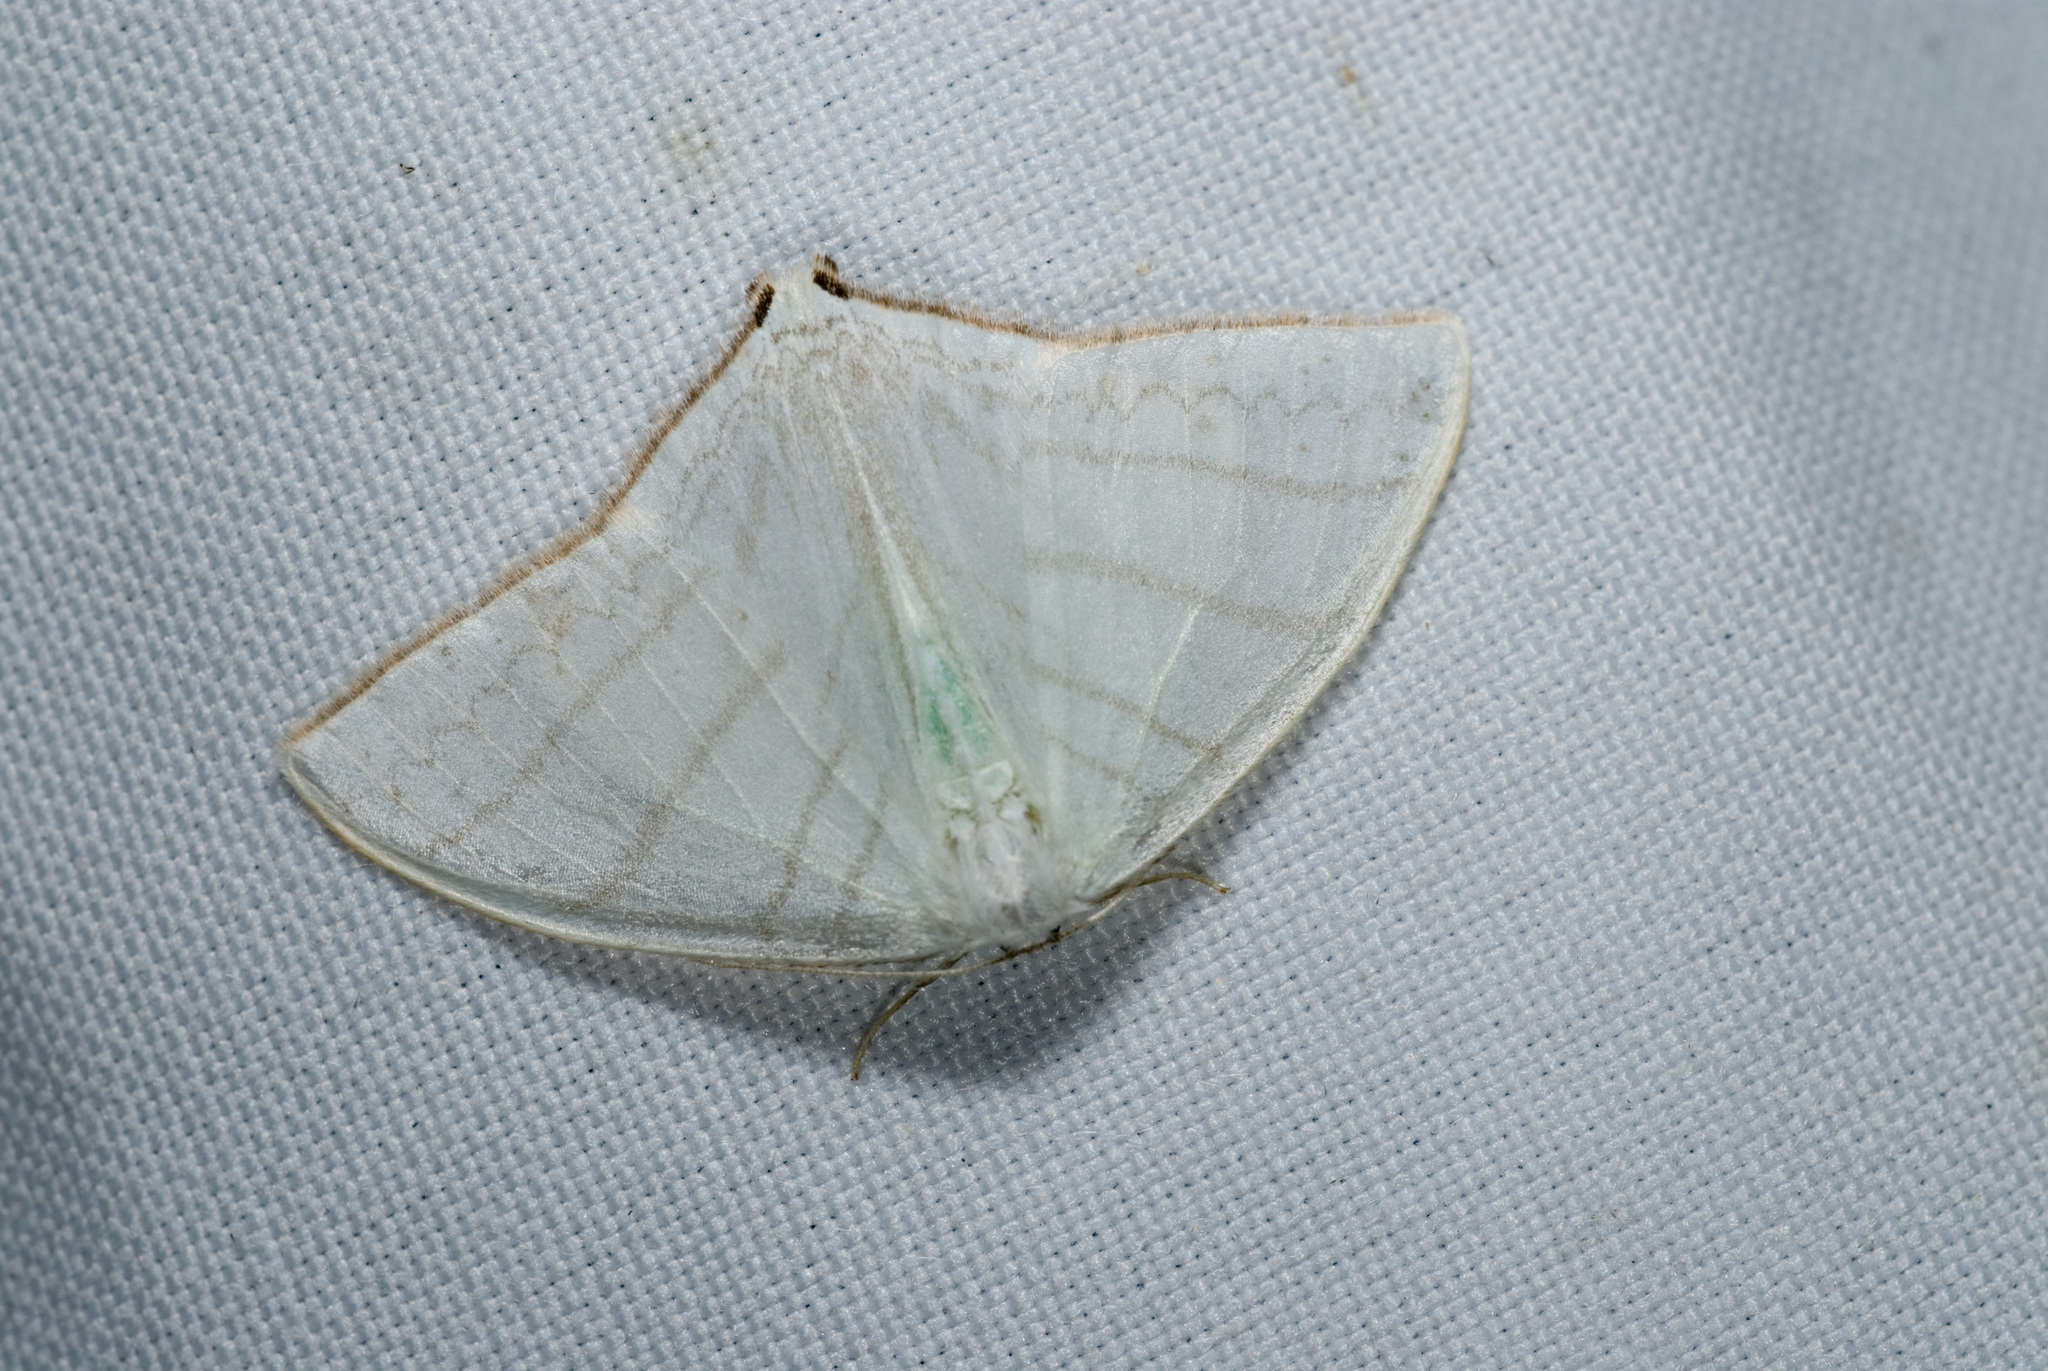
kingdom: Animalia
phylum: Arthropoda
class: Insecta
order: Lepidoptera
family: Drepanidae
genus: Ditrigona
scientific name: Ditrigona triangularia
